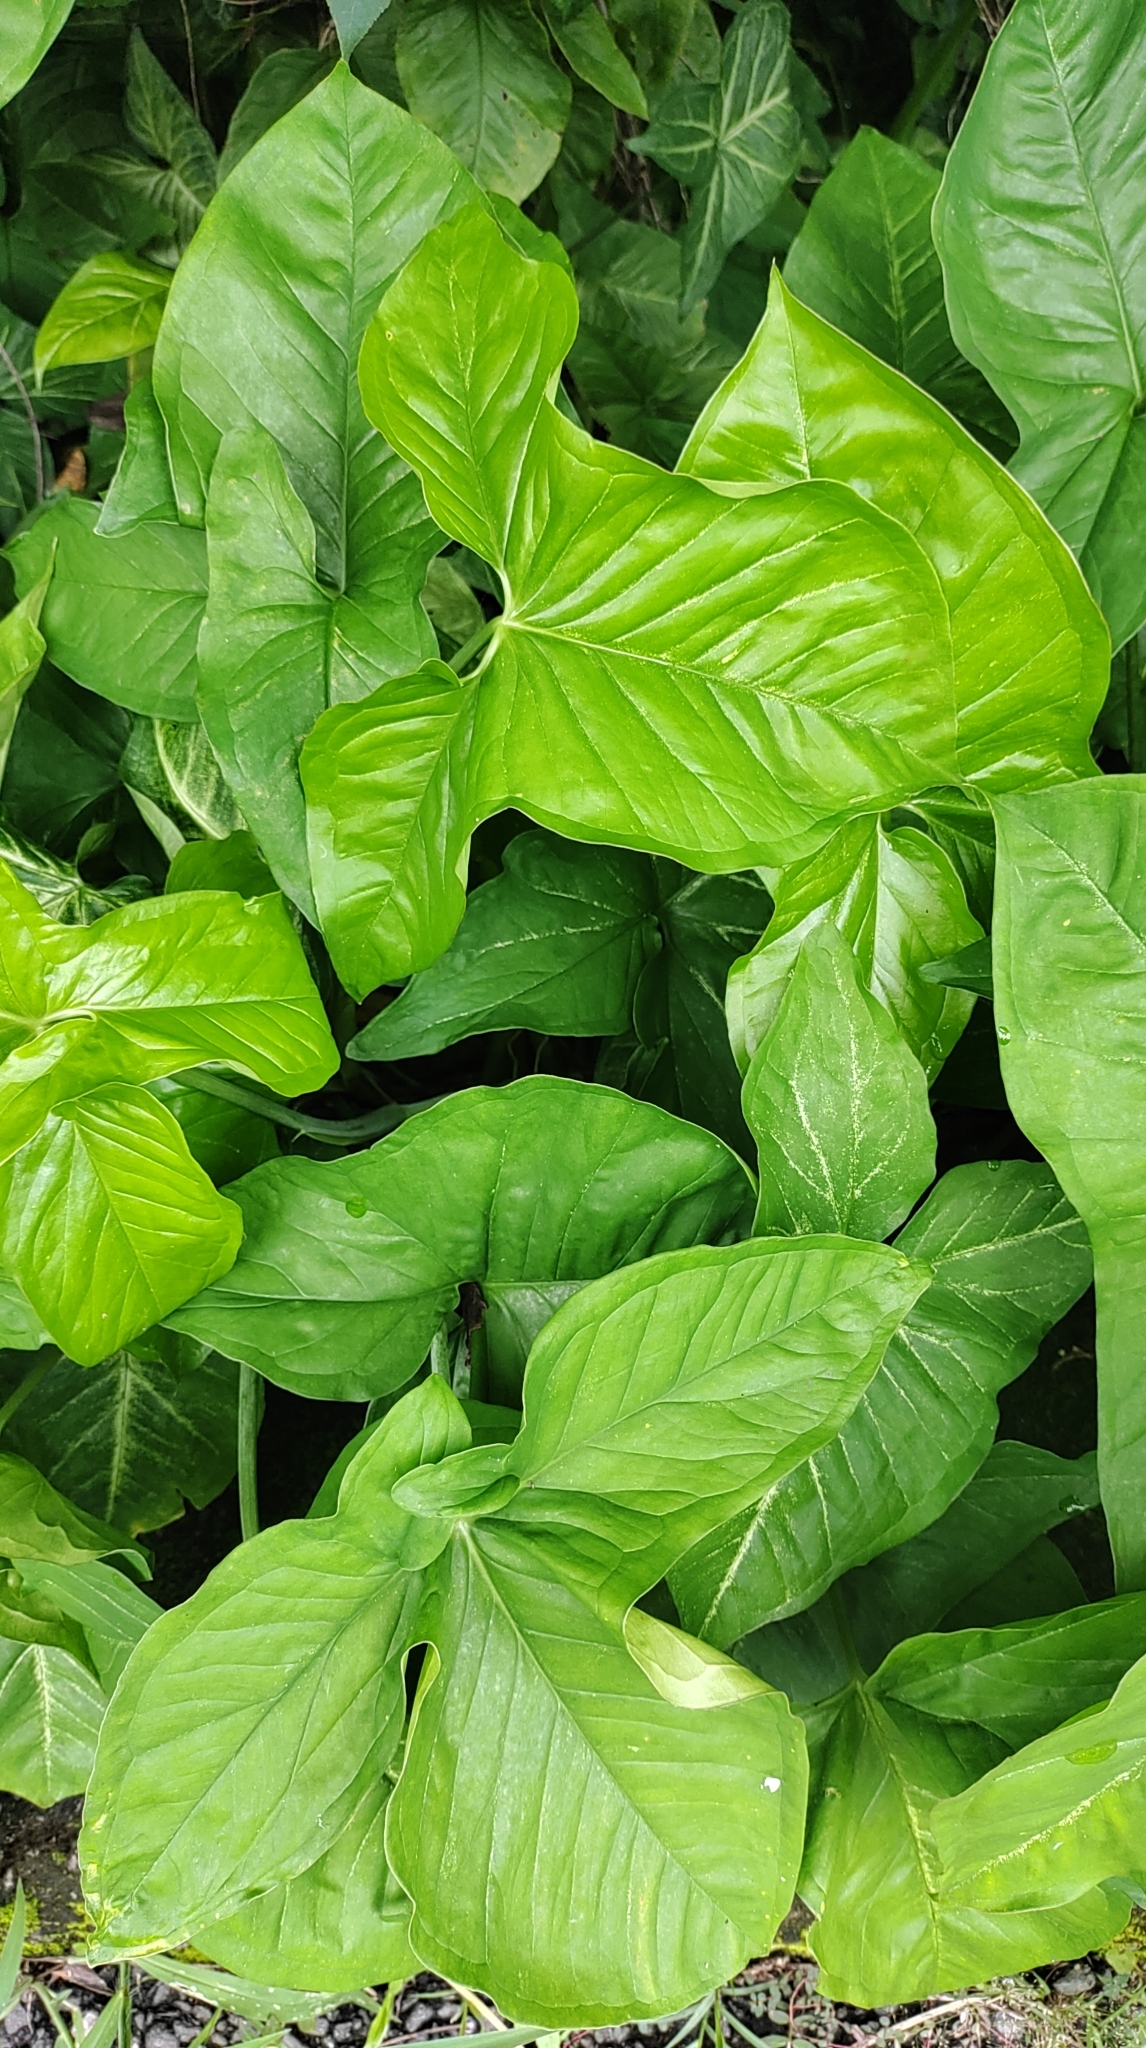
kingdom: Plantae
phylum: Tracheophyta
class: Liliopsida
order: Alismatales
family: Araceae
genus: Syngonium
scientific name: Syngonium podophyllum
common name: American evergreen
